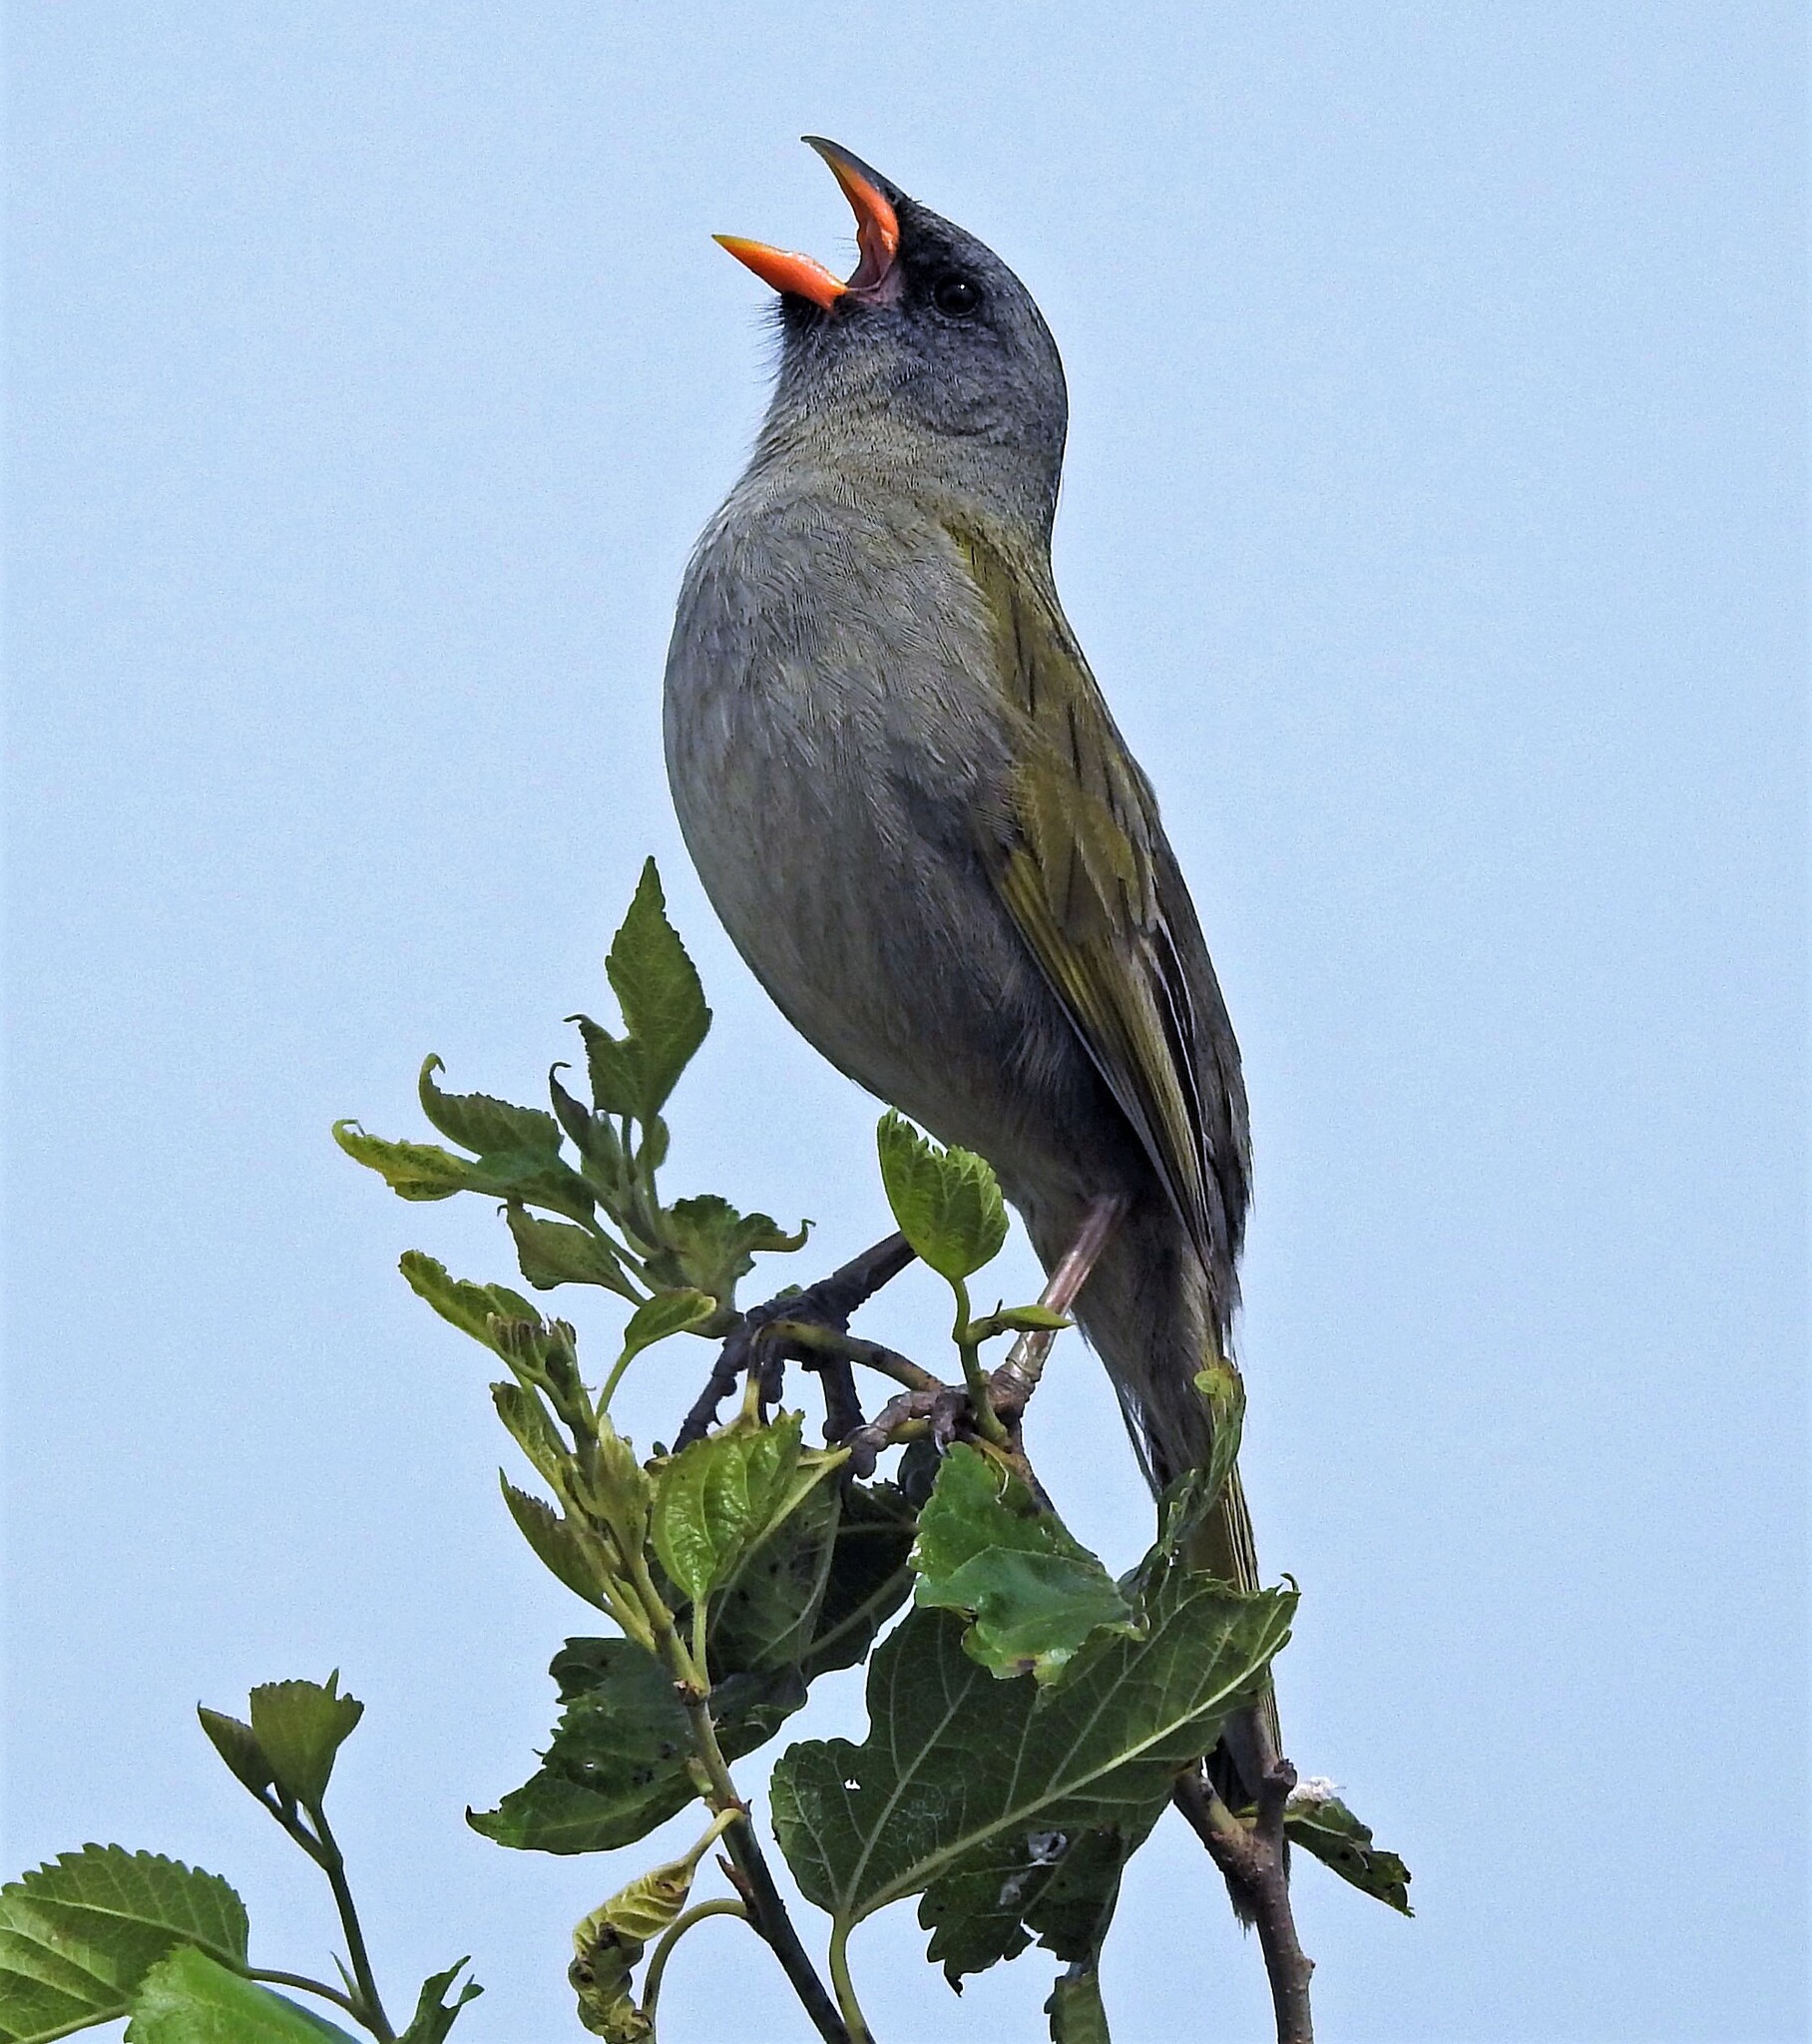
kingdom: Animalia
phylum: Chordata
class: Aves
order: Passeriformes
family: Thraupidae
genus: Embernagra
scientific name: Embernagra platensis
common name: Pampa finch
